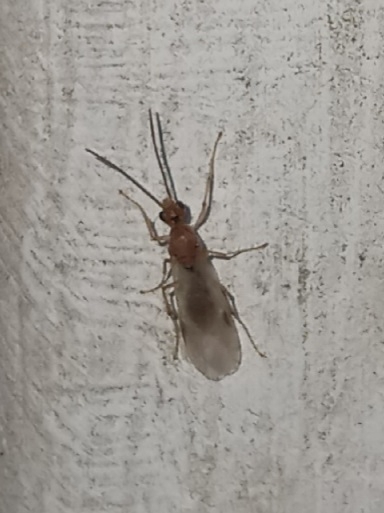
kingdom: Animalia
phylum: Arthropoda
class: Insecta
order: Hymenoptera
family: Formicidae
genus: Pachycondyla
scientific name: Pachycondyla chinensis
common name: Asian needle ant
